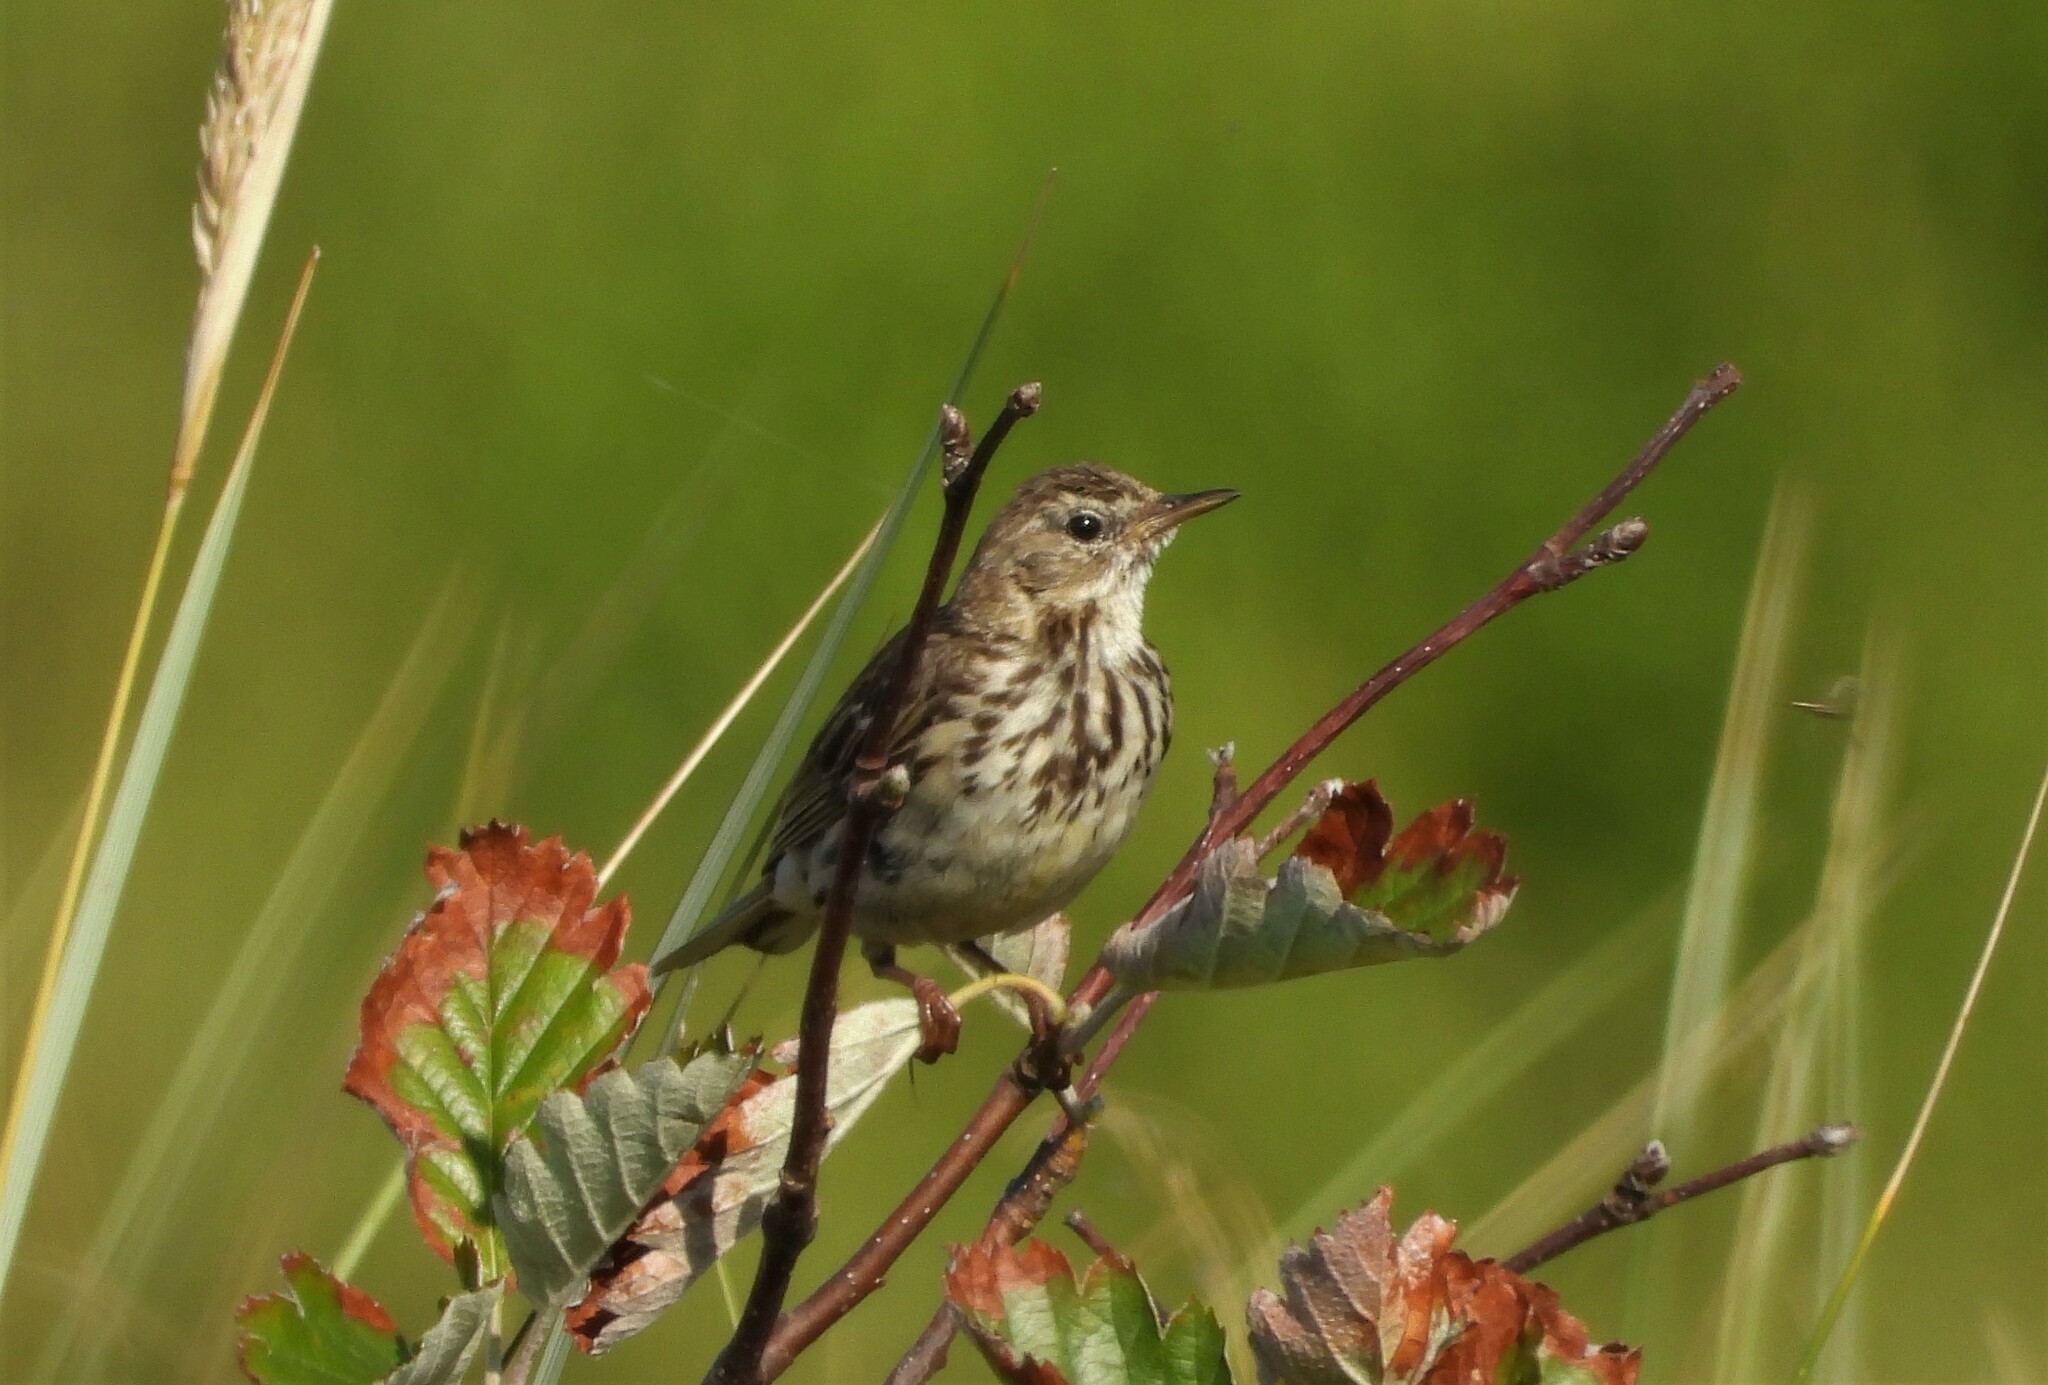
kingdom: Animalia
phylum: Chordata
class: Aves
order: Passeriformes
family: Motacillidae
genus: Anthus
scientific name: Anthus pratensis
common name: Meadow pipit
